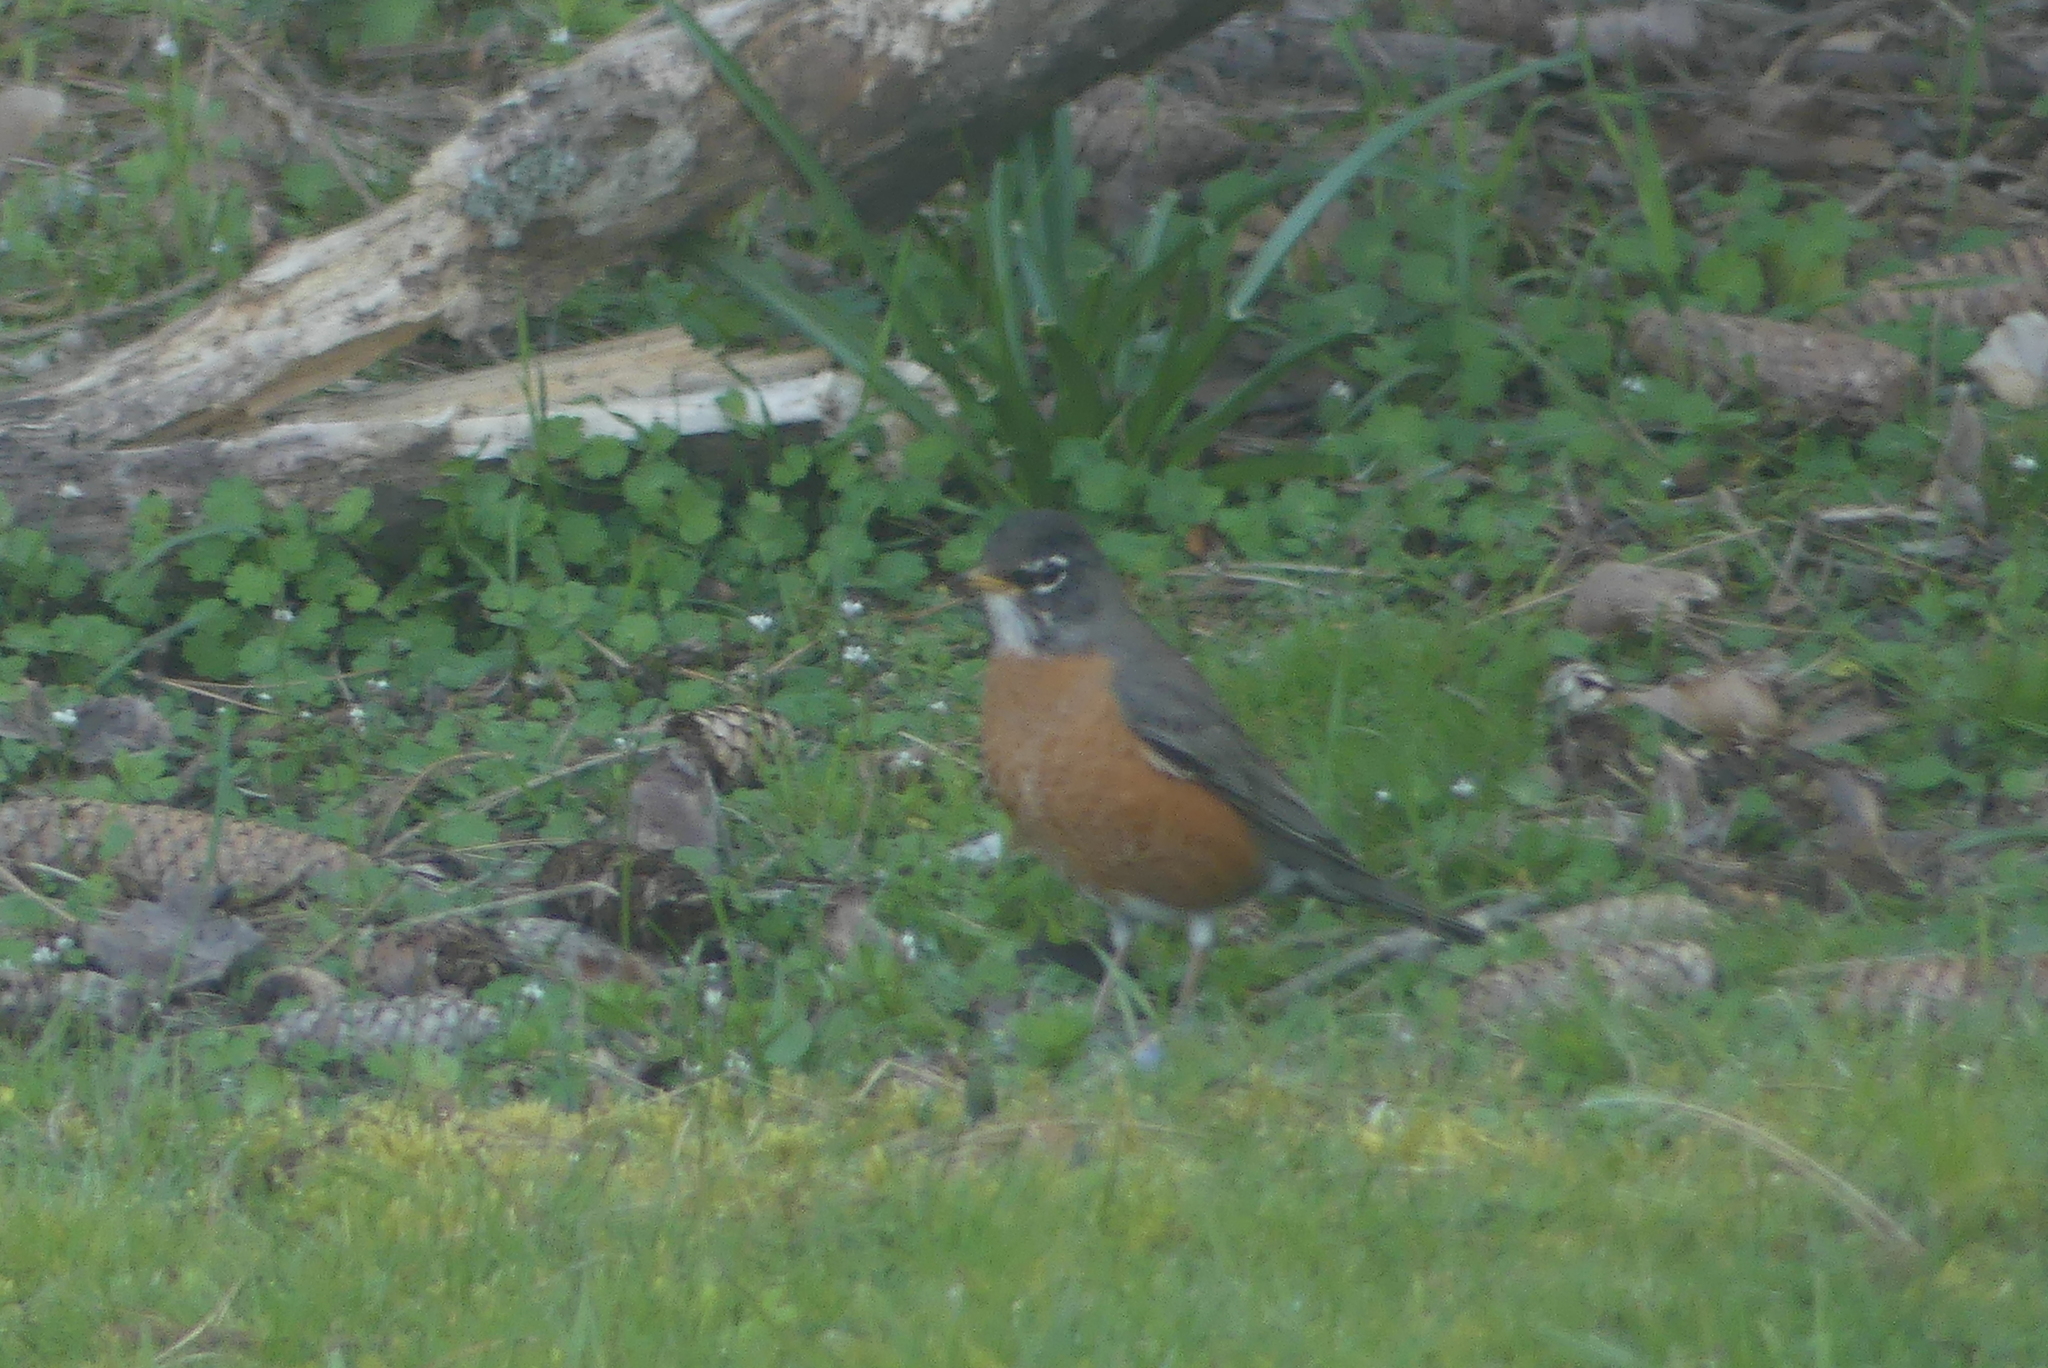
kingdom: Animalia
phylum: Chordata
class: Aves
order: Passeriformes
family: Turdidae
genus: Turdus
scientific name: Turdus migratorius
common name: American robin
